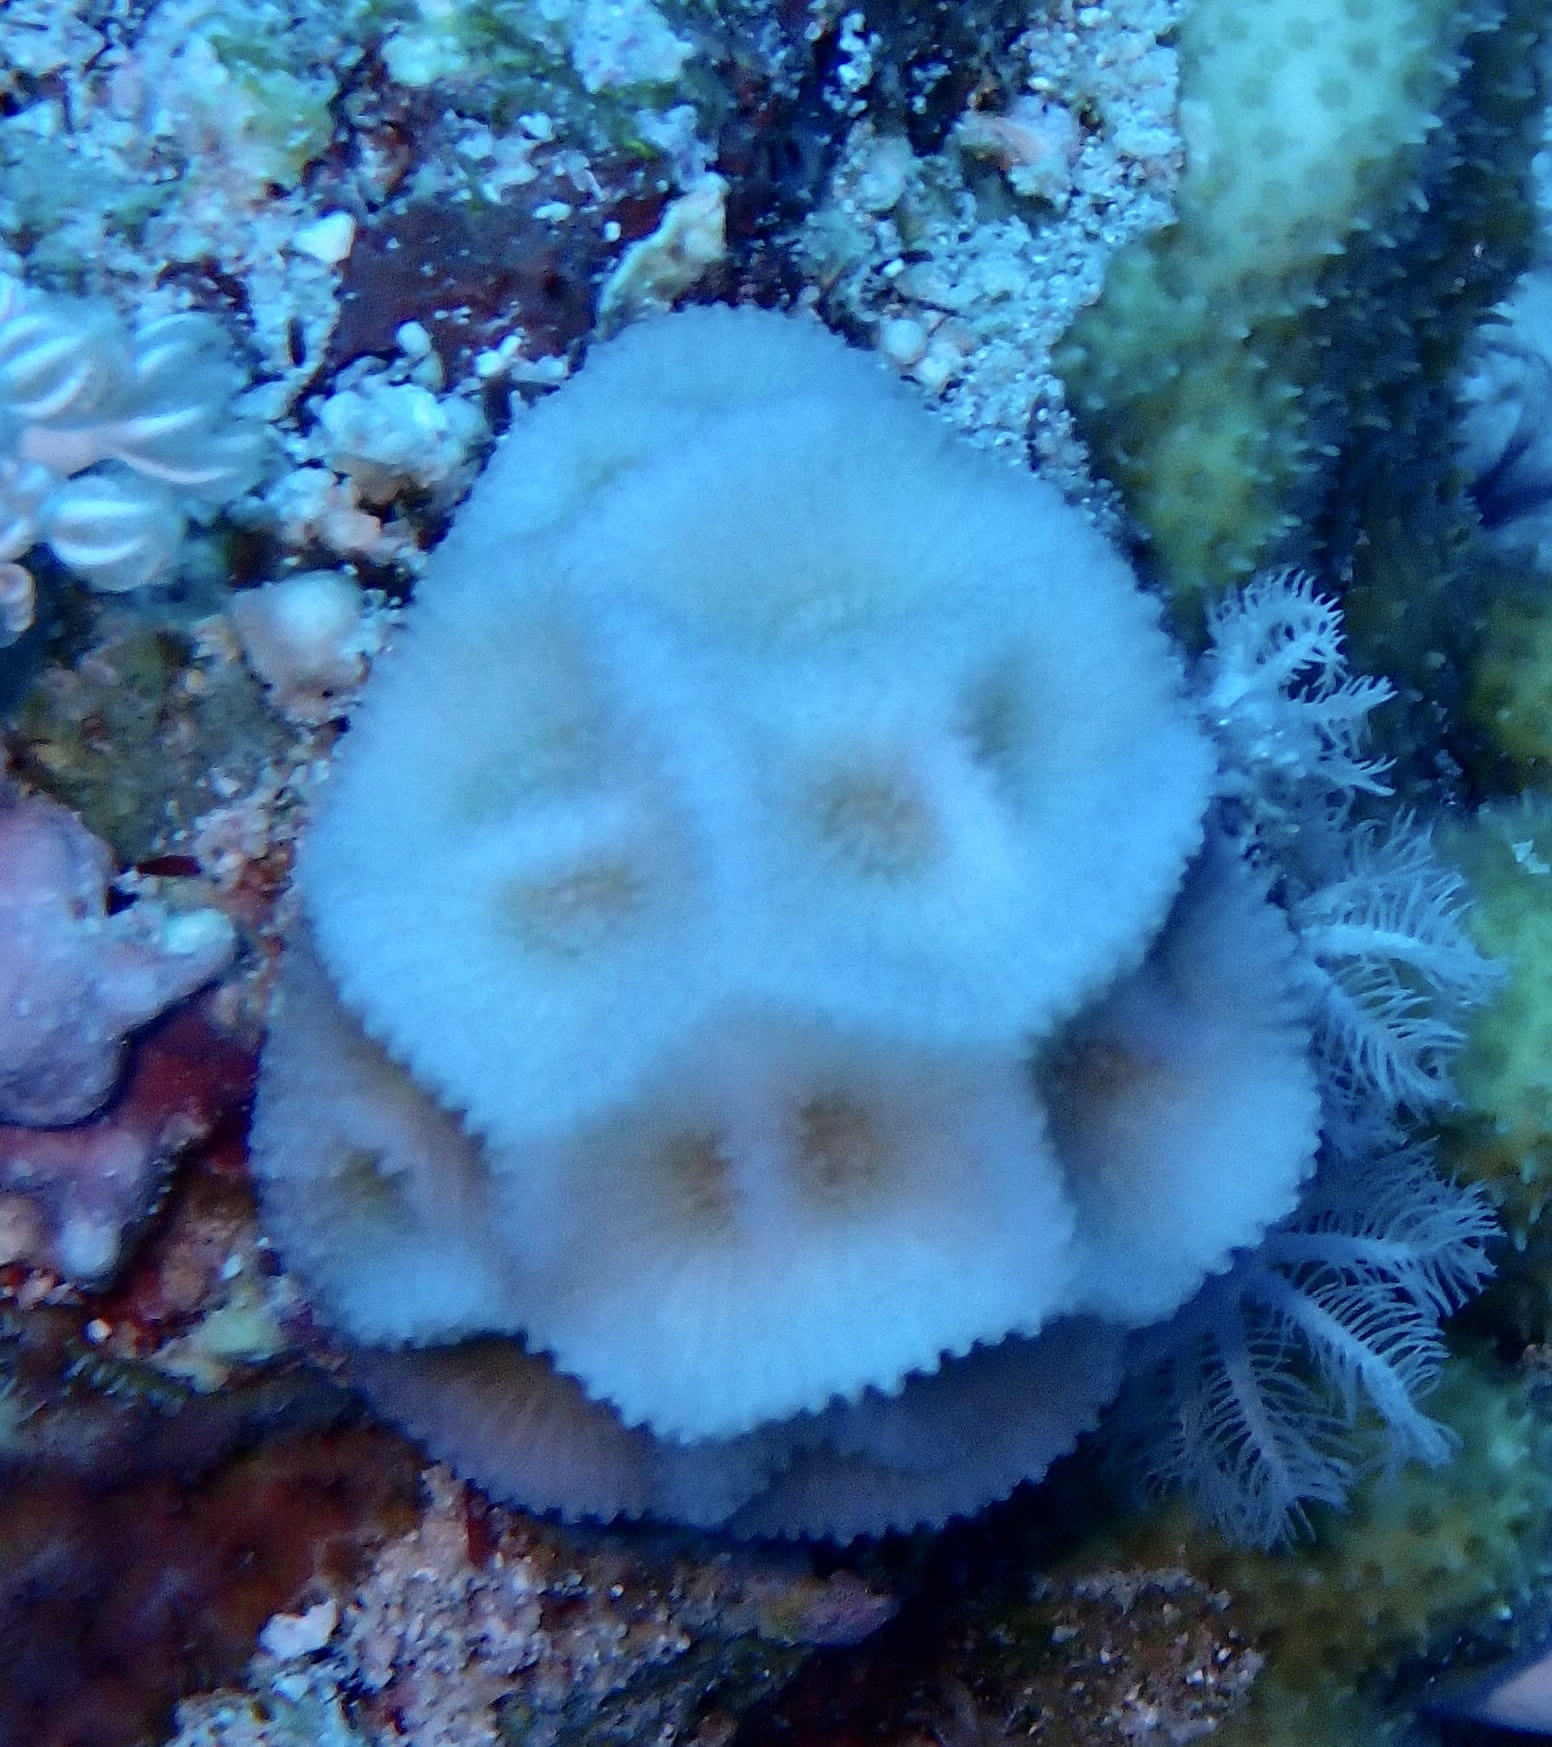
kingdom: Animalia
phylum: Cnidaria
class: Anthozoa
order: Scleractinia
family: Merulinidae
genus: Paramontastraea
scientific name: Paramontastraea peresi
